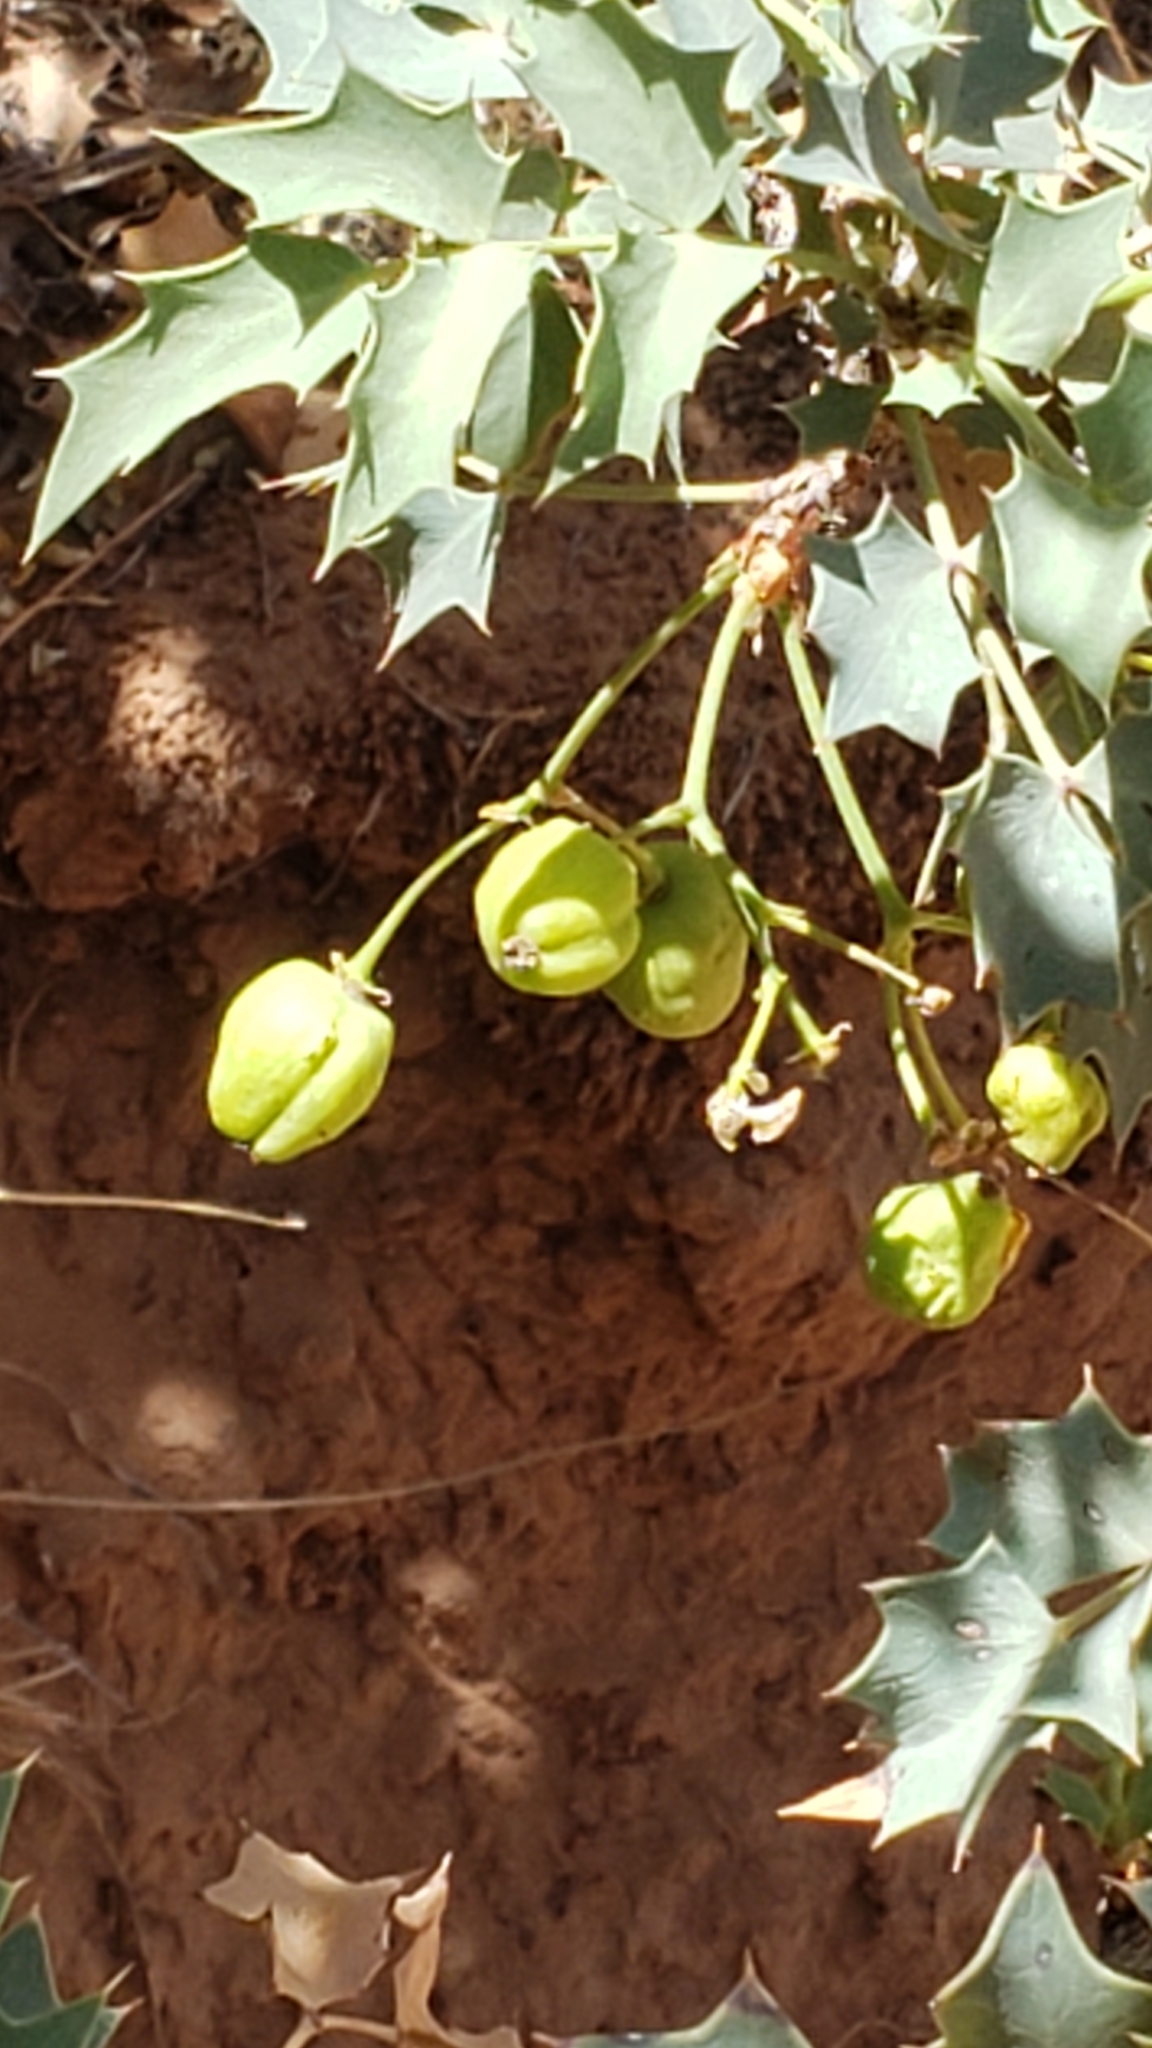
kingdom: Plantae
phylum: Tracheophyta
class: Magnoliopsida
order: Ranunculales
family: Berberidaceae
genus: Alloberberis
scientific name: Alloberberis fremontii
